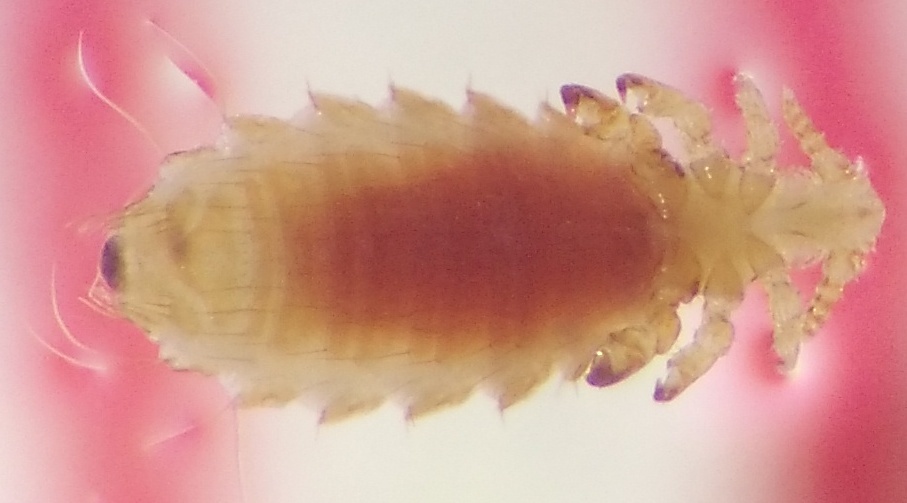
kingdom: Animalia
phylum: Arthropoda
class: Insecta
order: Psocodea
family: Polyplacidae
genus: Polyplax
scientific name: Polyplax spinulosa
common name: Sucking louse
